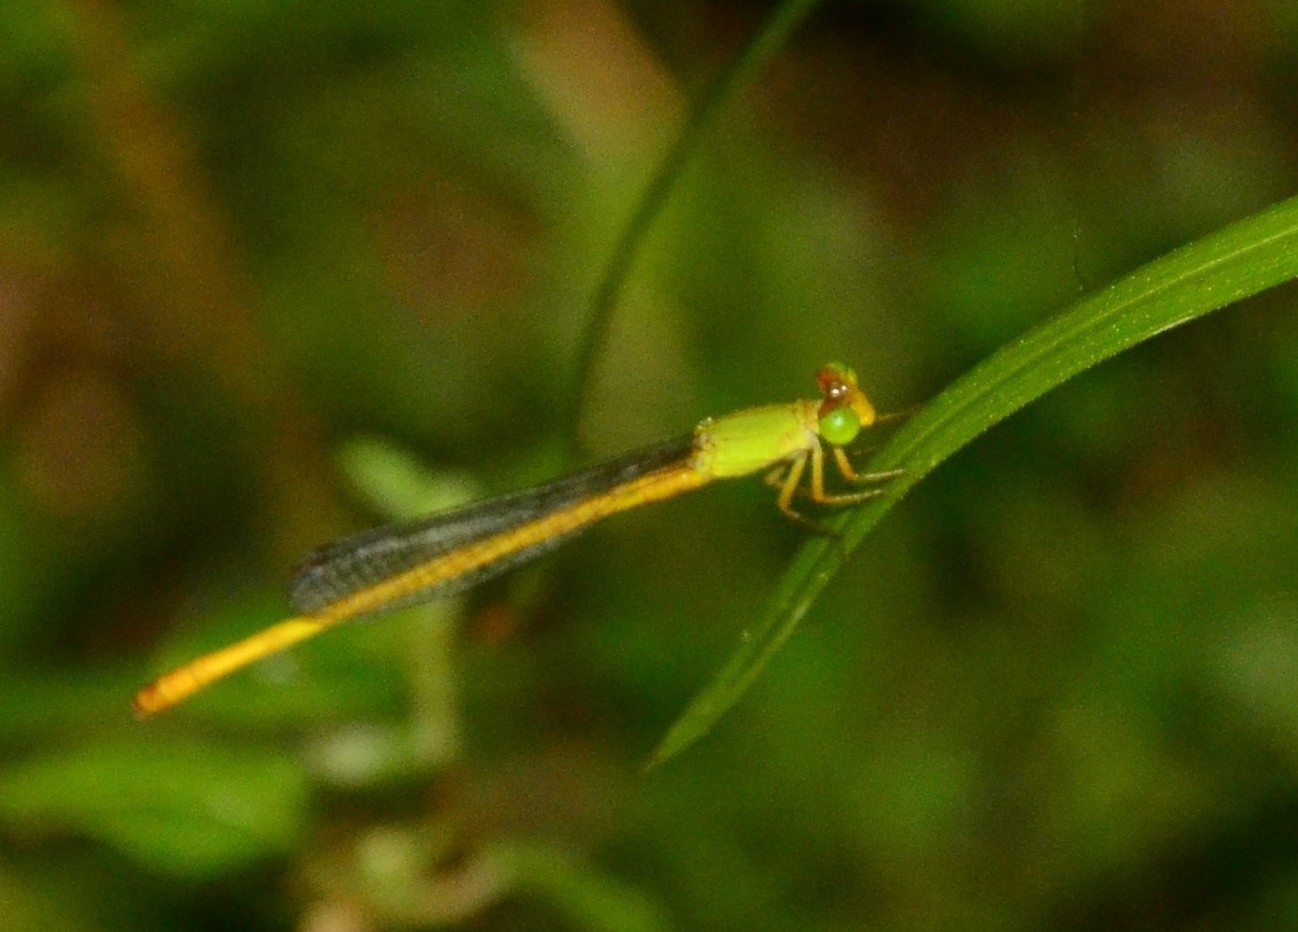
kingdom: Animalia
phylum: Arthropoda
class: Insecta
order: Odonata
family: Coenagrionidae
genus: Ceriagrion
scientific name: Ceriagrion coromandelianum
